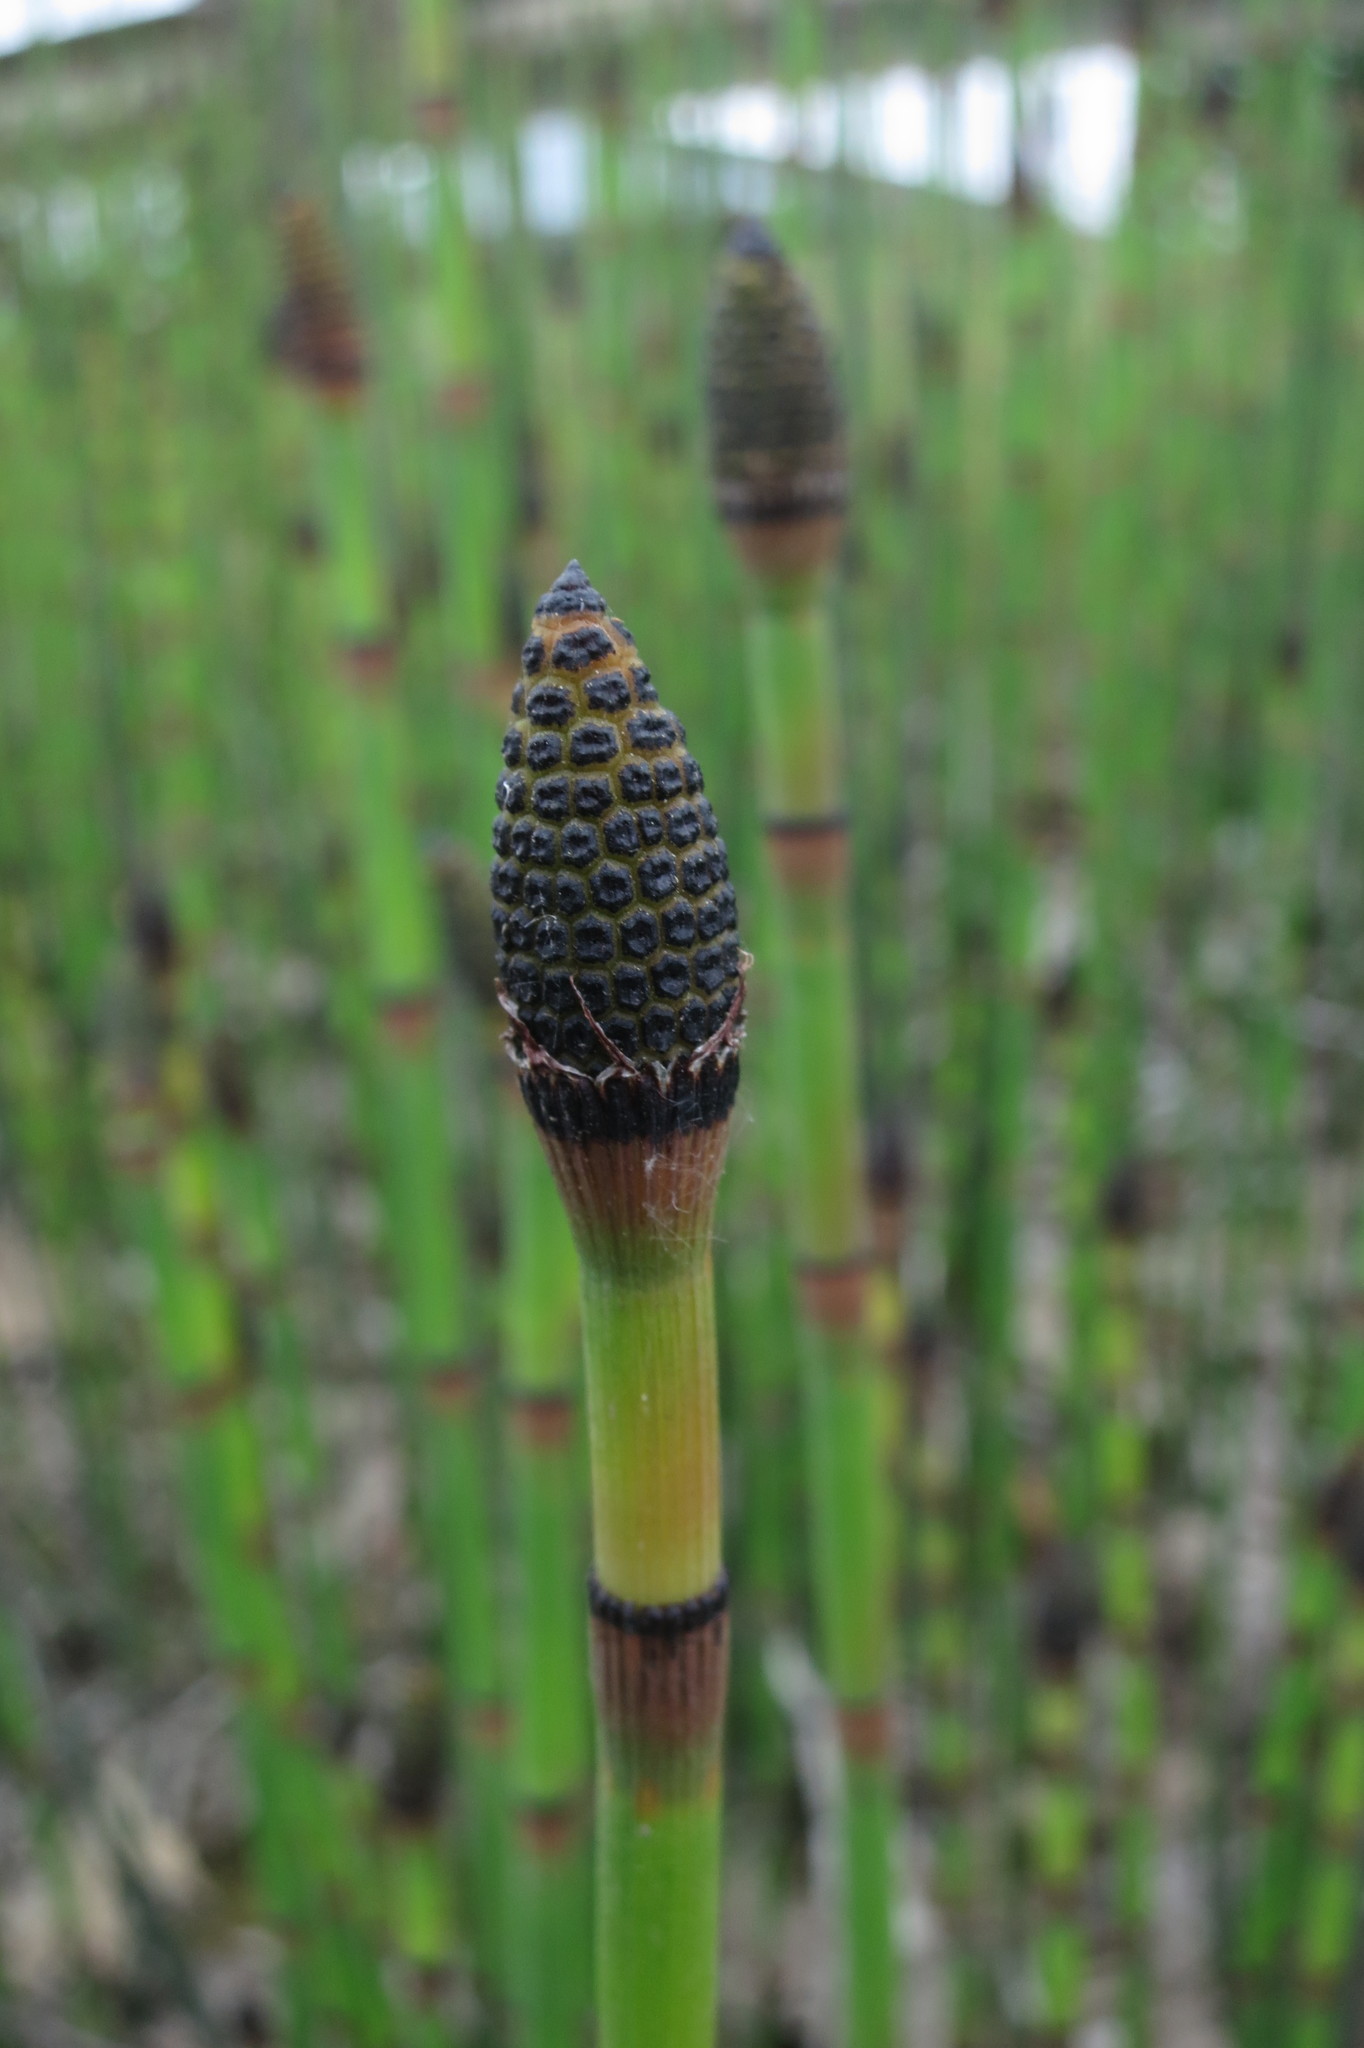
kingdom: Plantae
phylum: Tracheophyta
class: Polypodiopsida
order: Equisetales
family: Equisetaceae
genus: Equisetum
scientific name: Equisetum ferrissii
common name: Ferriss' horsetail
